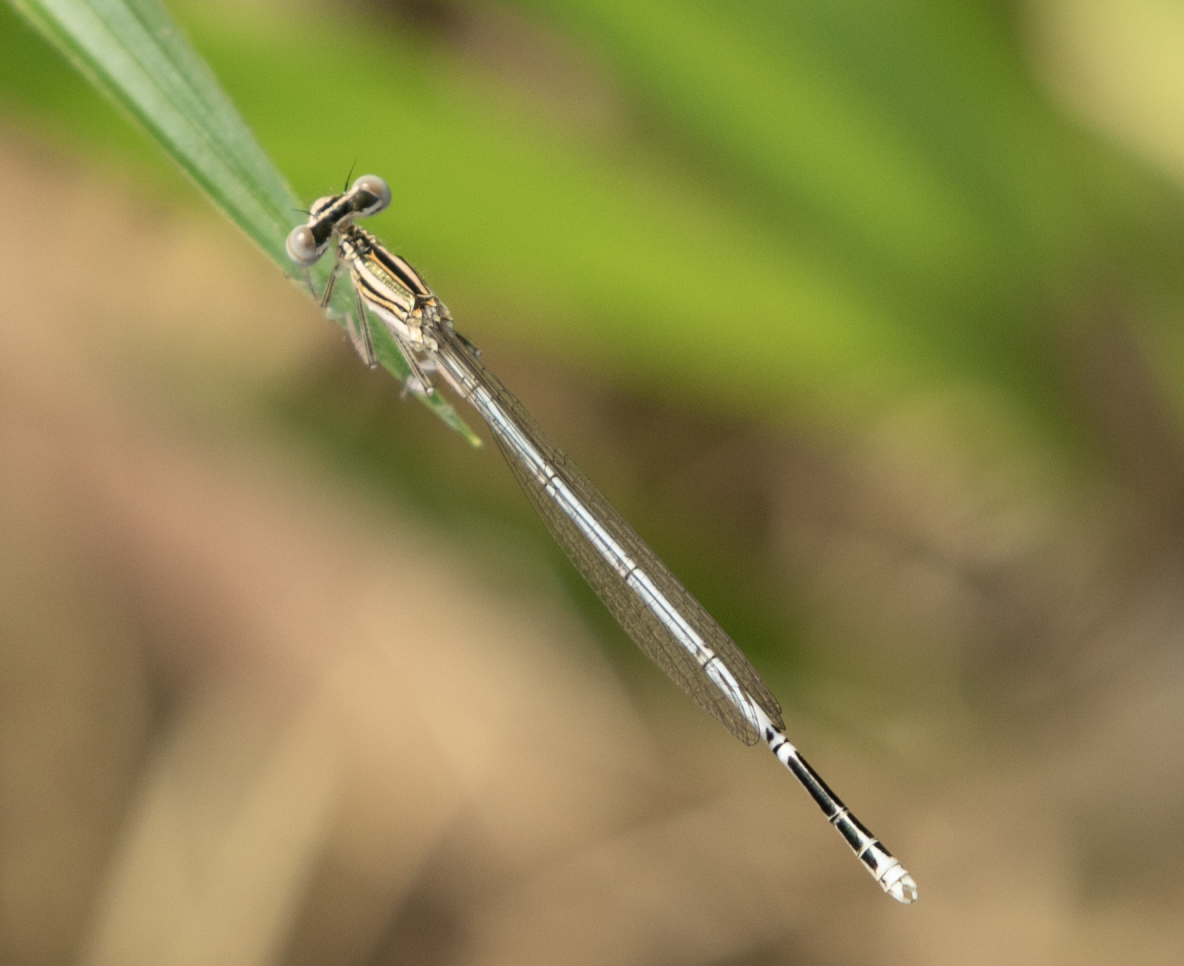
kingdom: Animalia
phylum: Arthropoda
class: Insecta
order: Odonata
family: Platycnemididae
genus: Platycnemis
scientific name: Platycnemis pennipes
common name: White-legged damselfly
